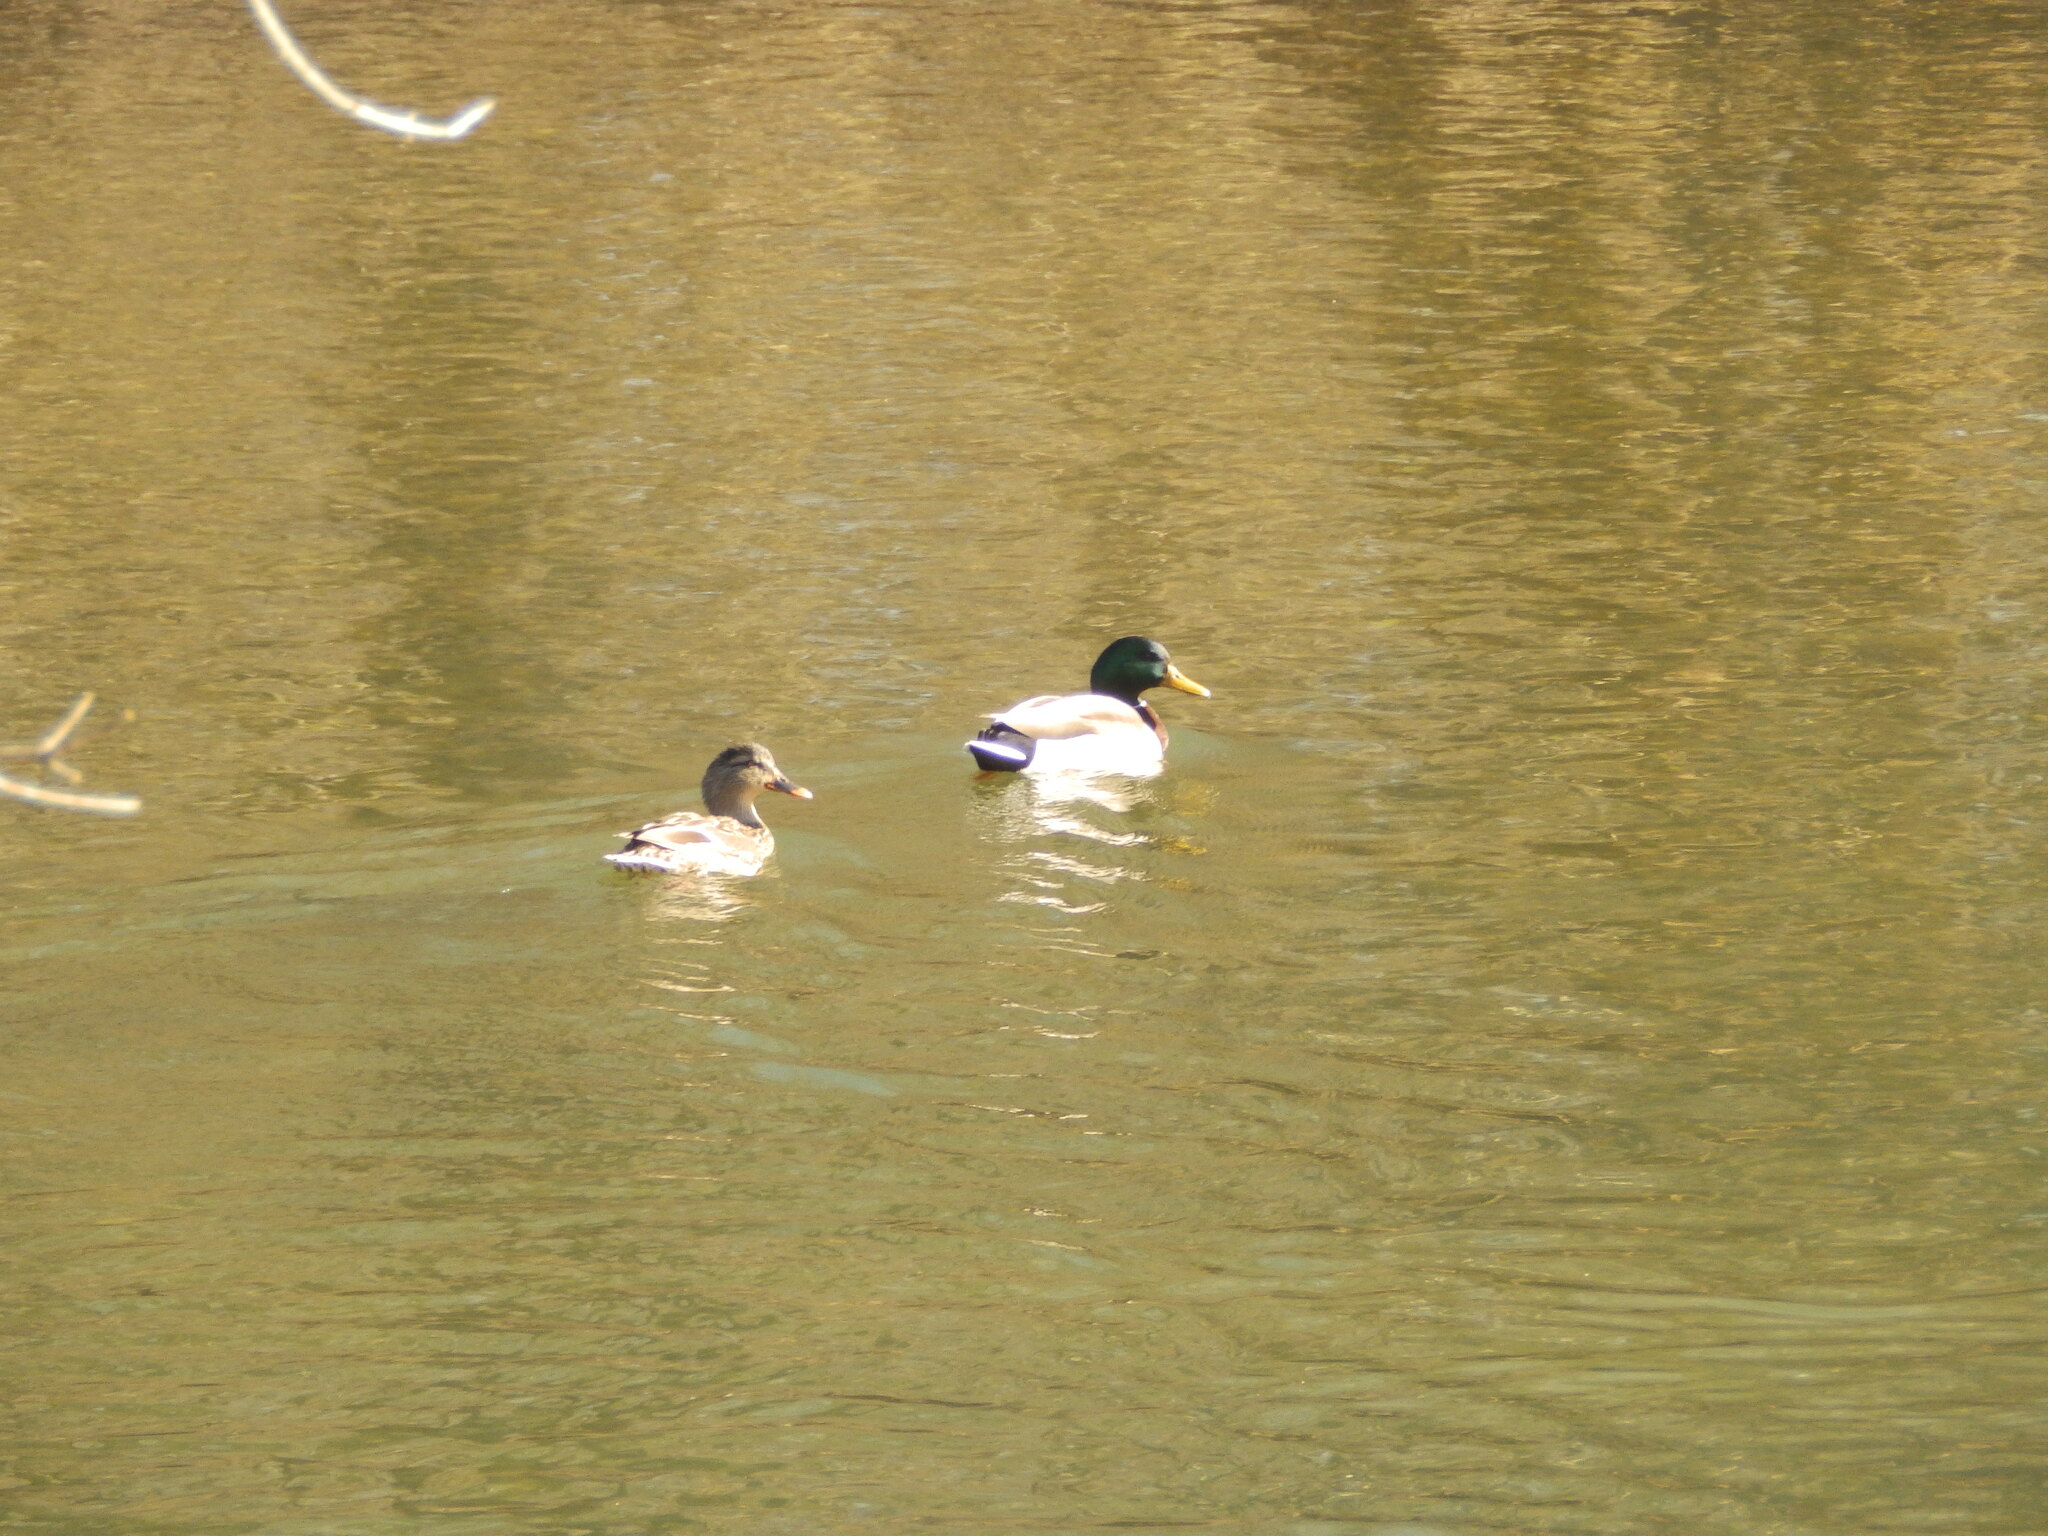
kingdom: Animalia
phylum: Chordata
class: Aves
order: Anseriformes
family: Anatidae
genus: Anas
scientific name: Anas platyrhynchos
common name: Mallard
